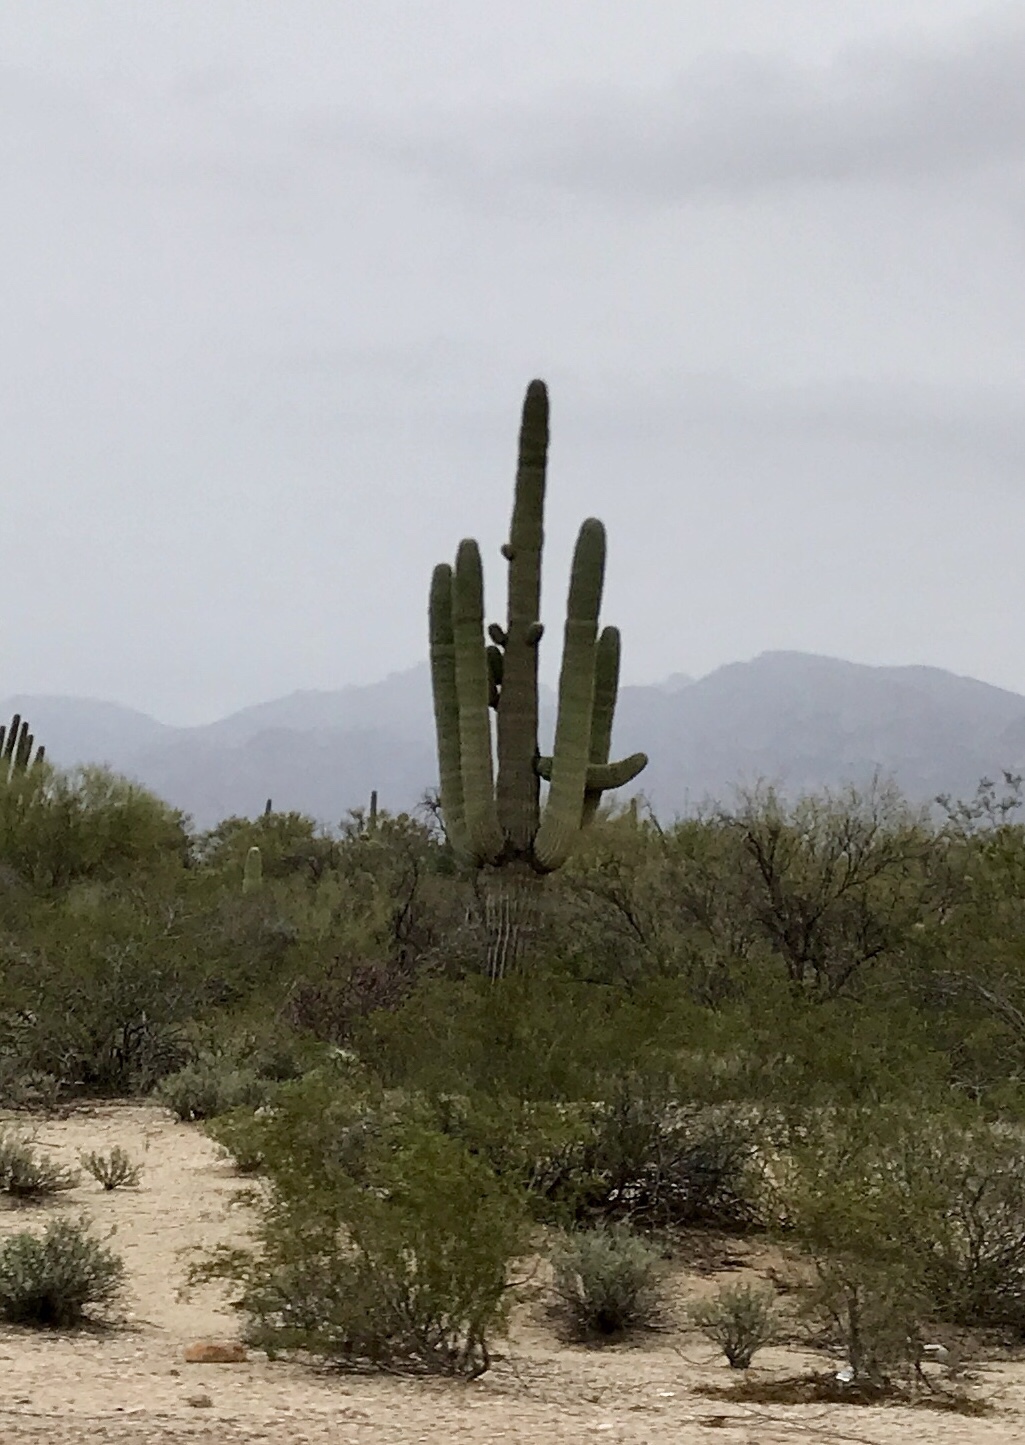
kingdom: Plantae
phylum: Tracheophyta
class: Magnoliopsida
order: Caryophyllales
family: Cactaceae
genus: Carnegiea
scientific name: Carnegiea gigantea
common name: Saguaro
